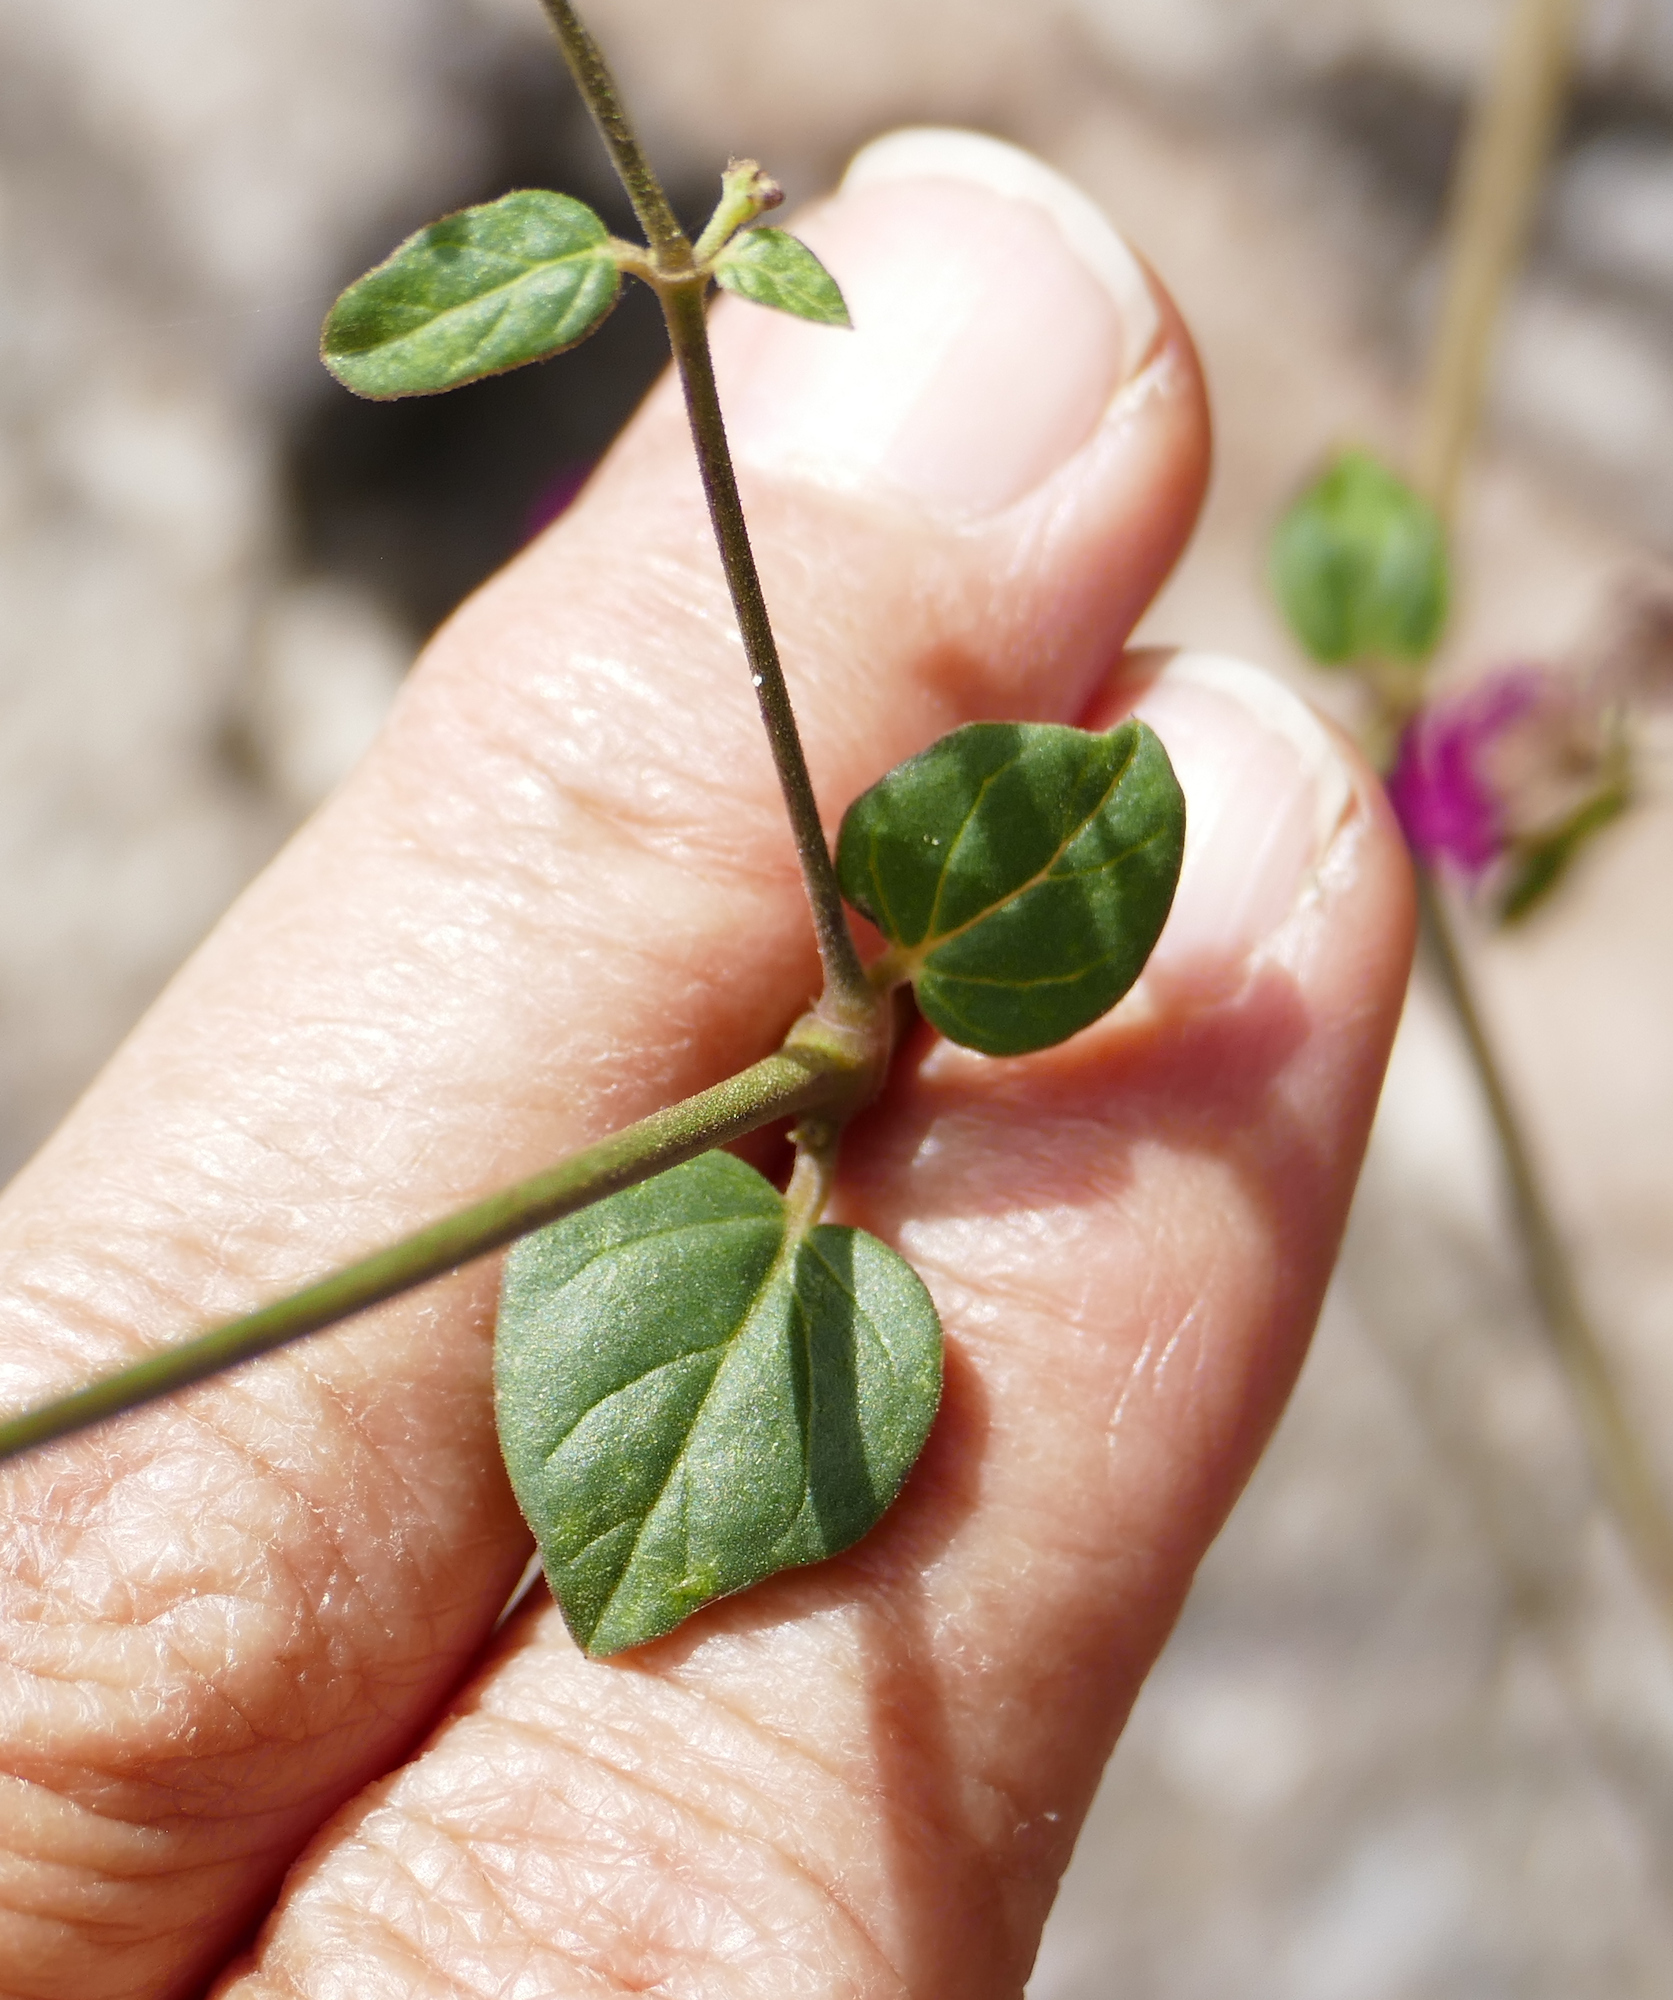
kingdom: Plantae
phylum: Tracheophyta
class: Magnoliopsida
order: Caryophyllales
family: Nyctaginaceae
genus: Boerhavia
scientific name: Boerhavia coccinea
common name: Scarlet spiderling
